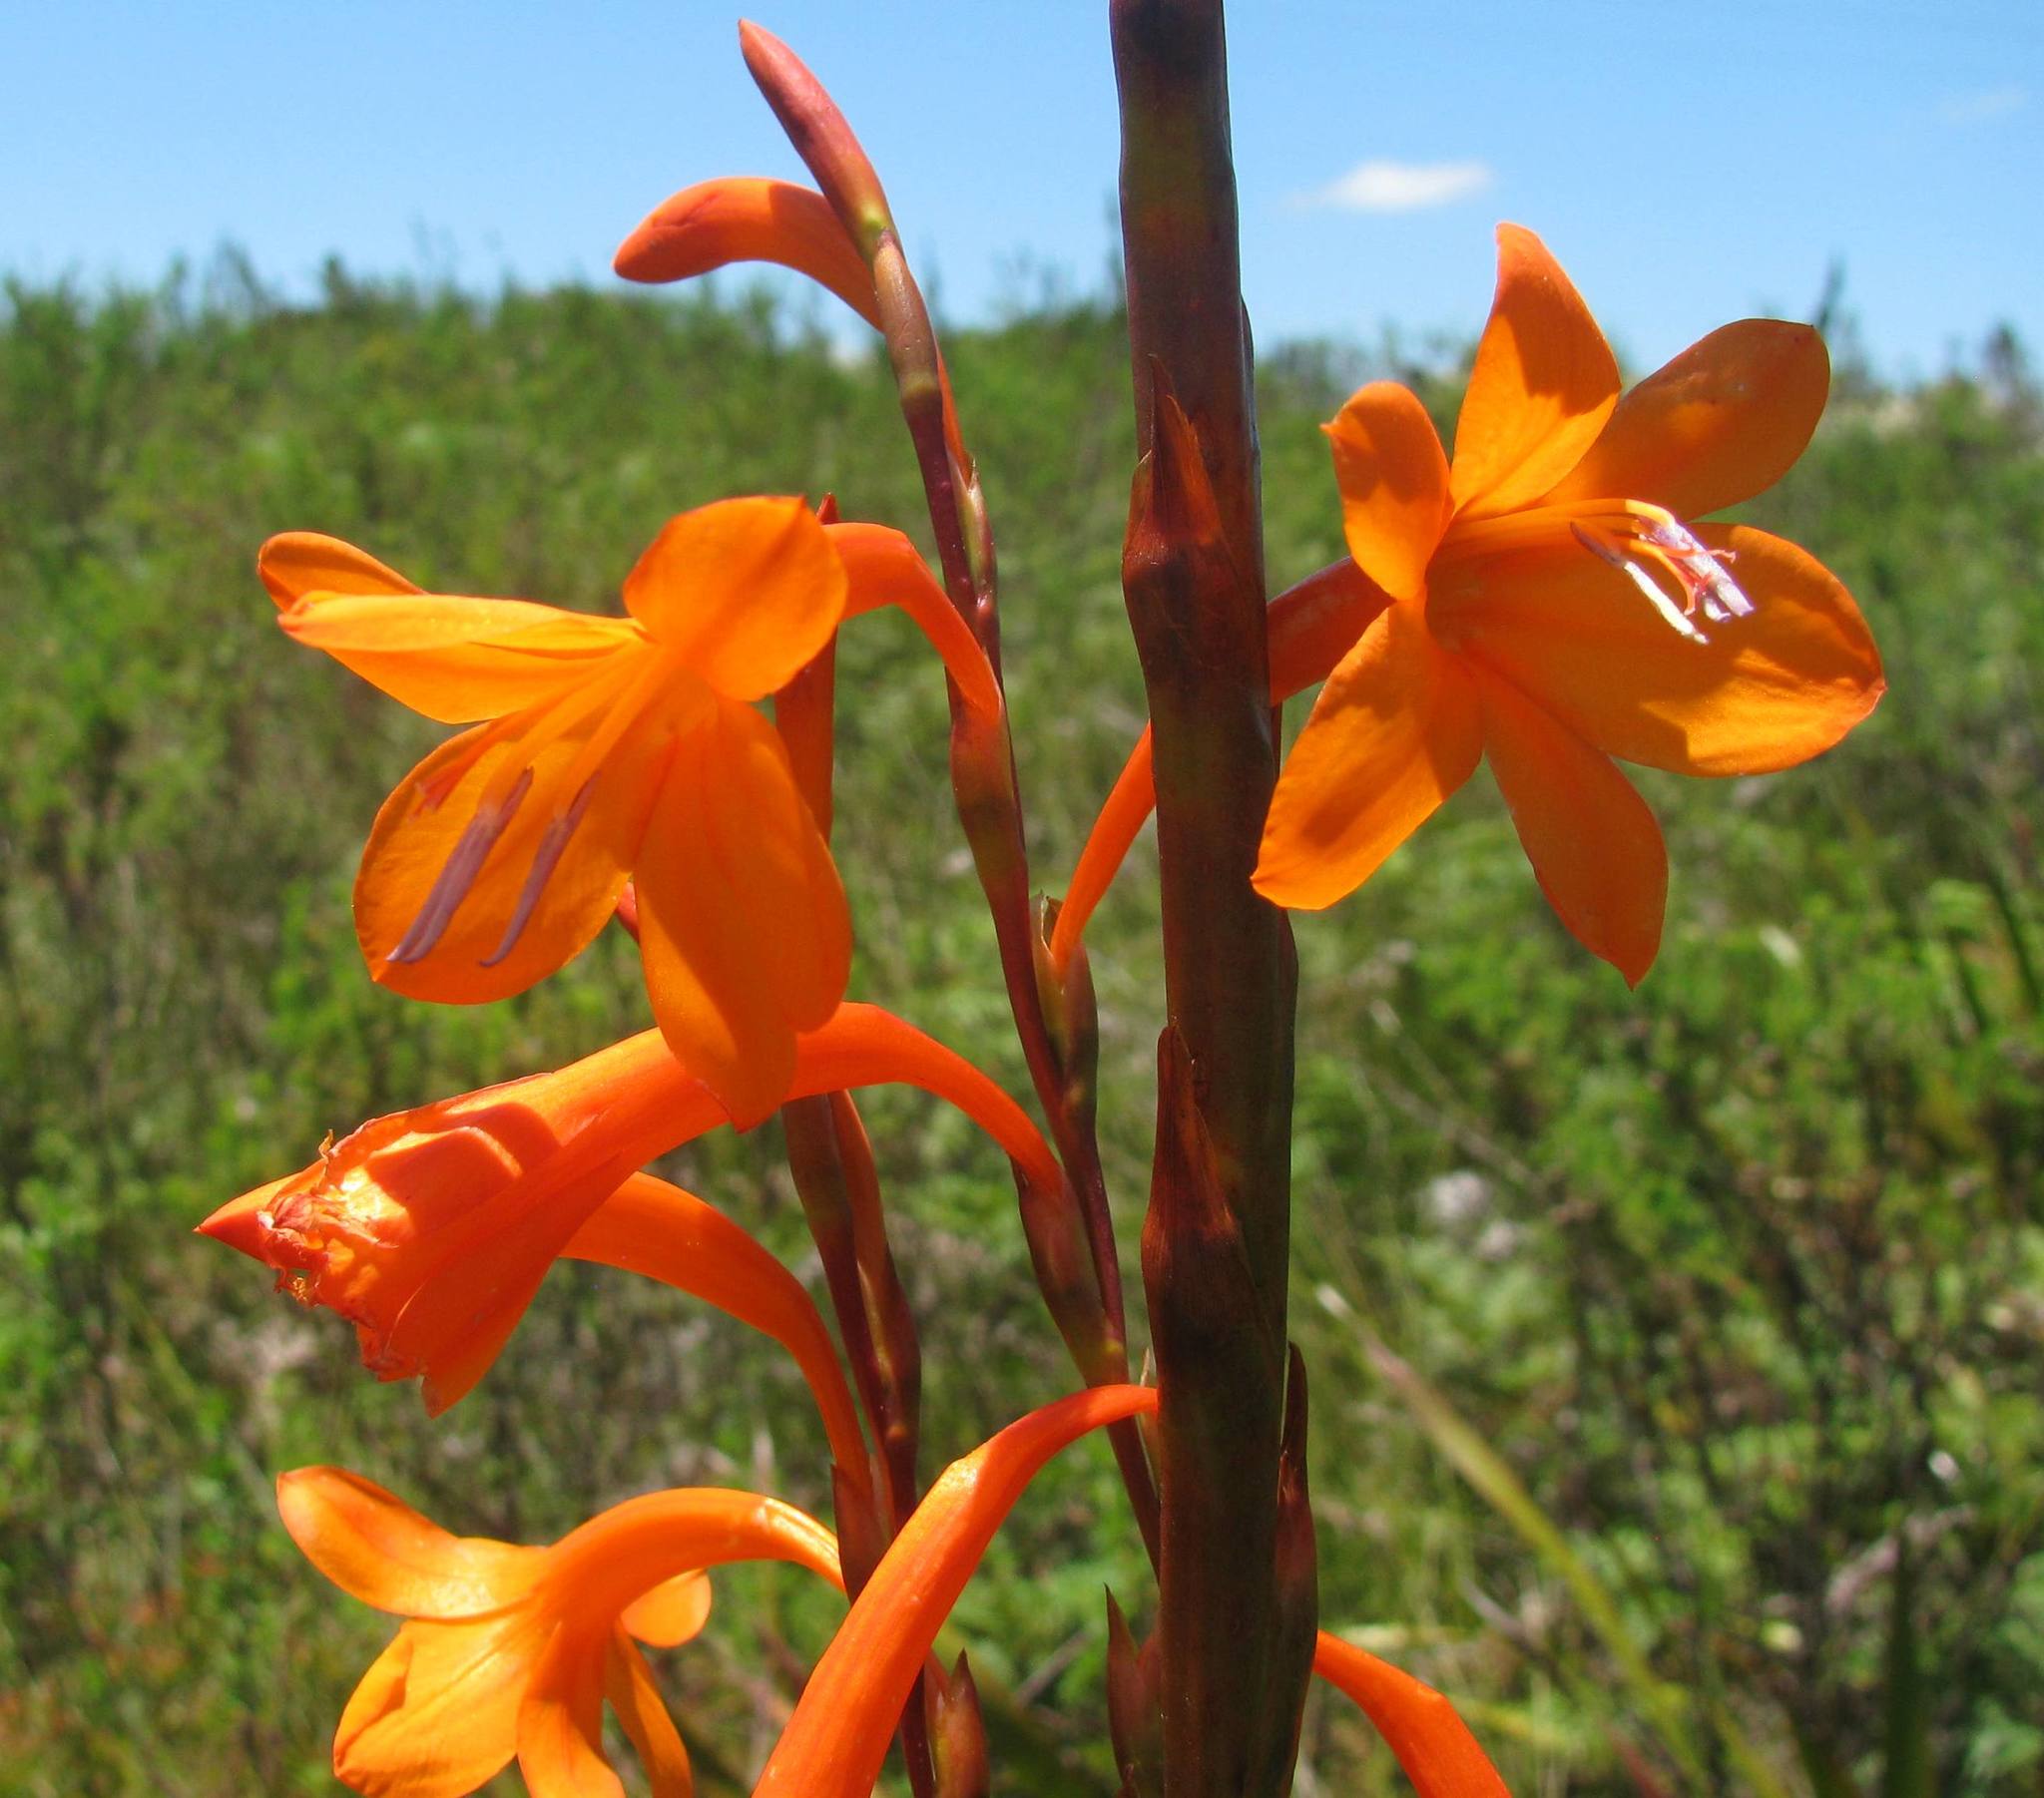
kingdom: Plantae
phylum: Tracheophyta
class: Liliopsida
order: Asparagales
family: Iridaceae
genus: Watsonia
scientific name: Watsonia pillansii
